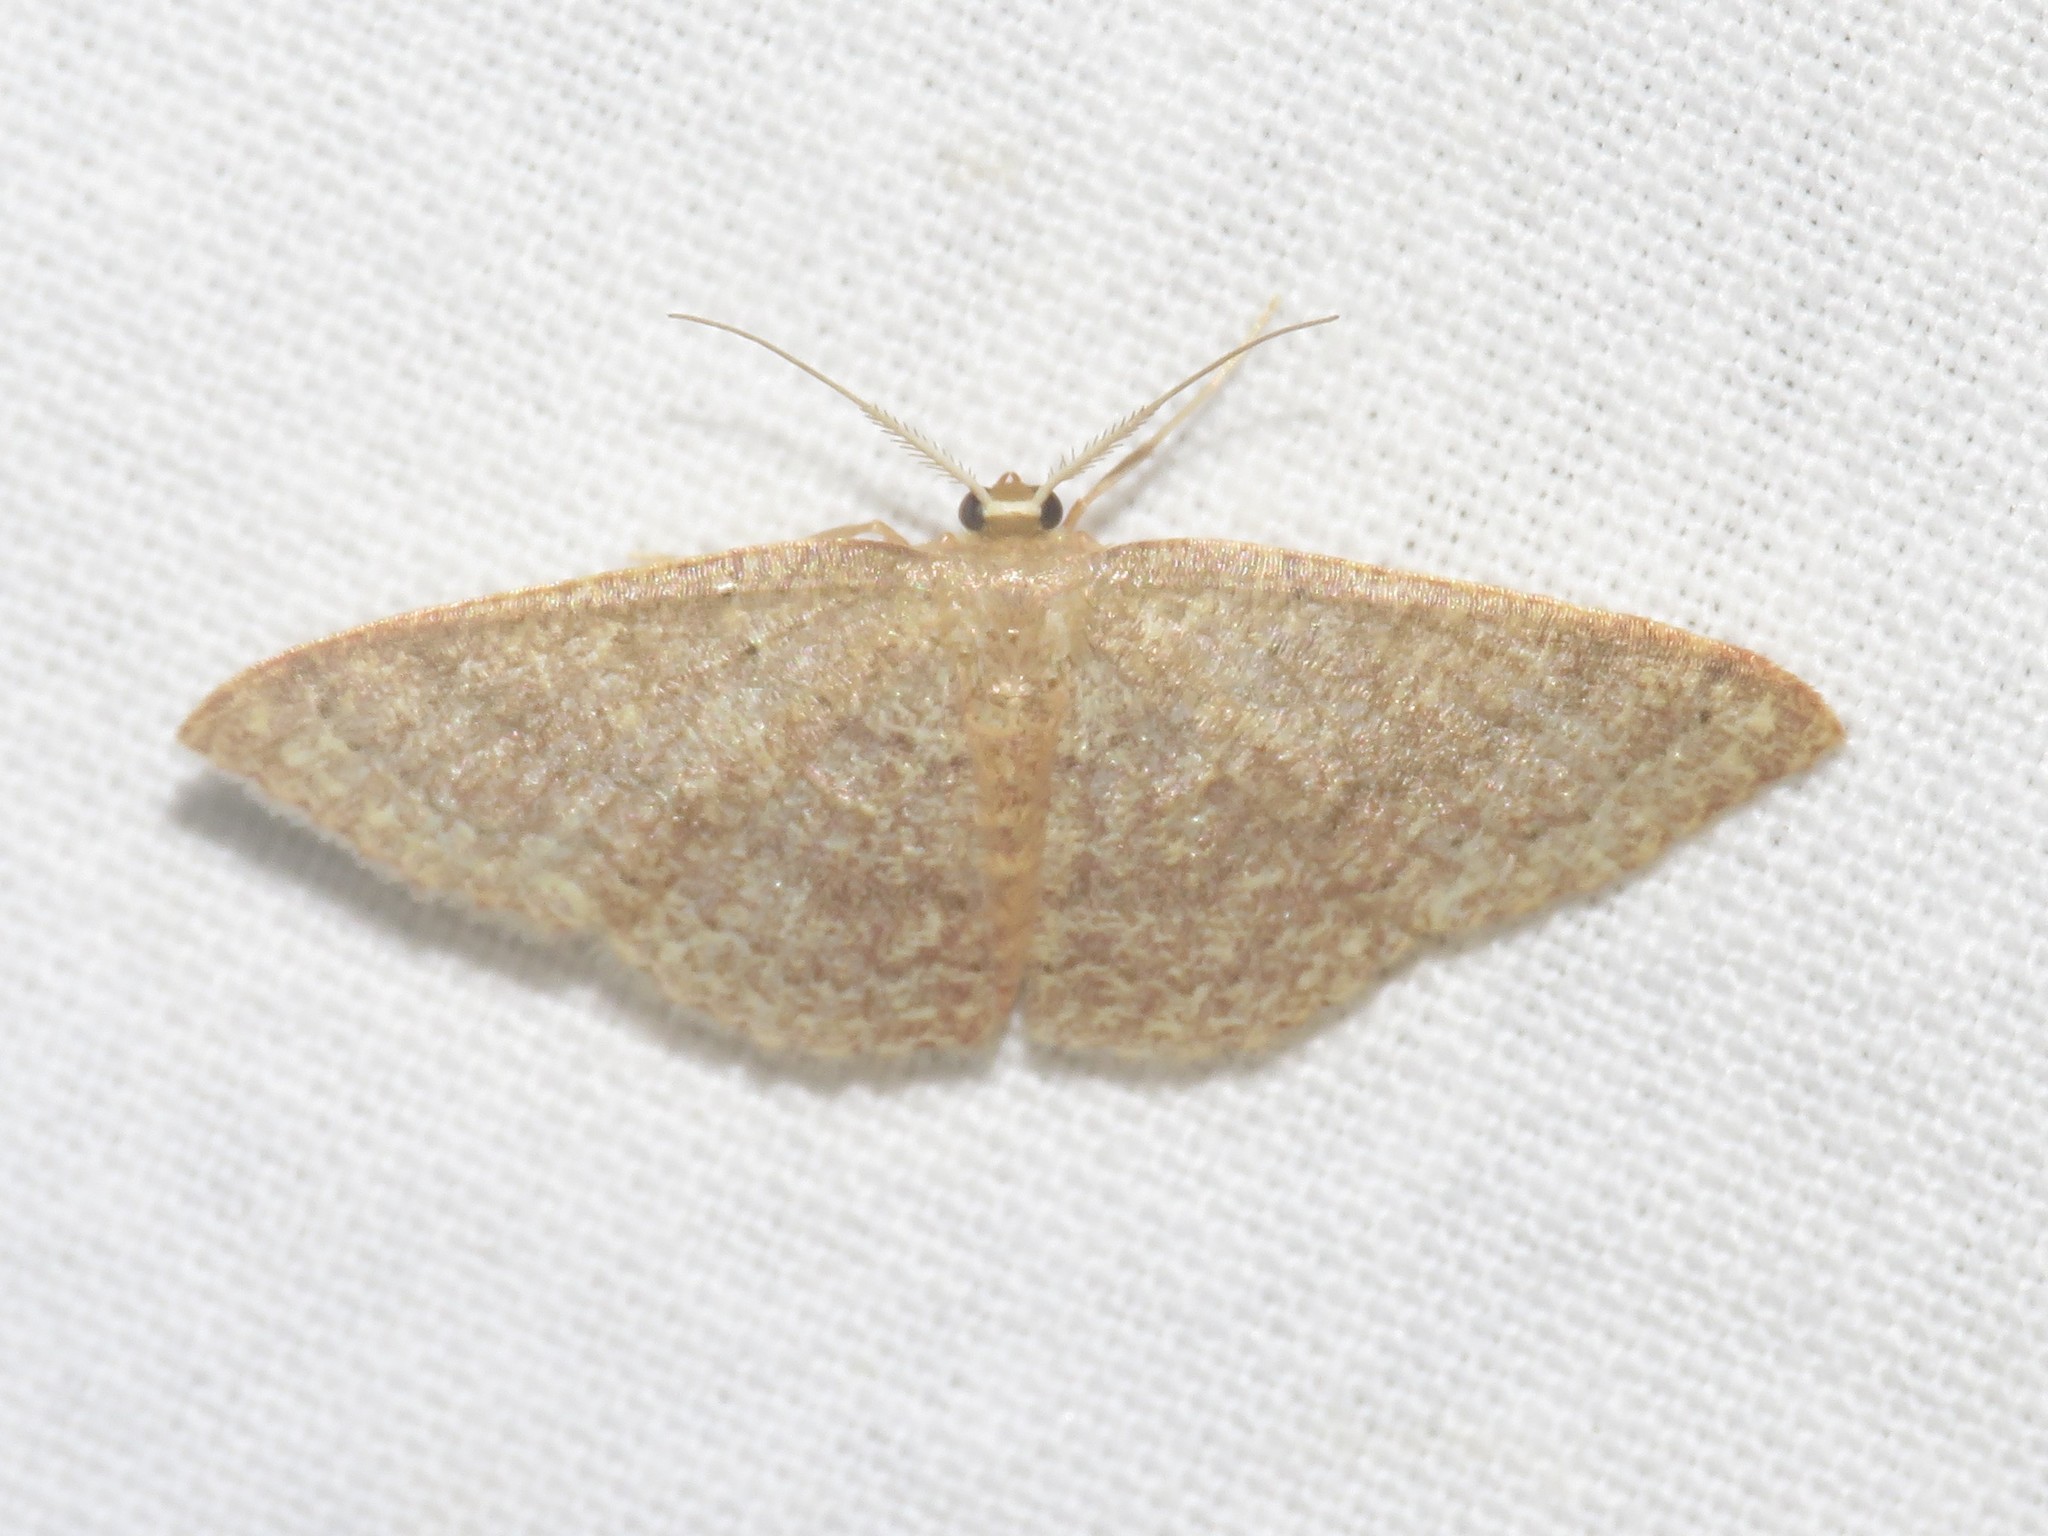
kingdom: Animalia
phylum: Arthropoda
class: Insecta
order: Lepidoptera
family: Geometridae
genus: Pleuroprucha
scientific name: Pleuroprucha insulsaria
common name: Common tan wave
